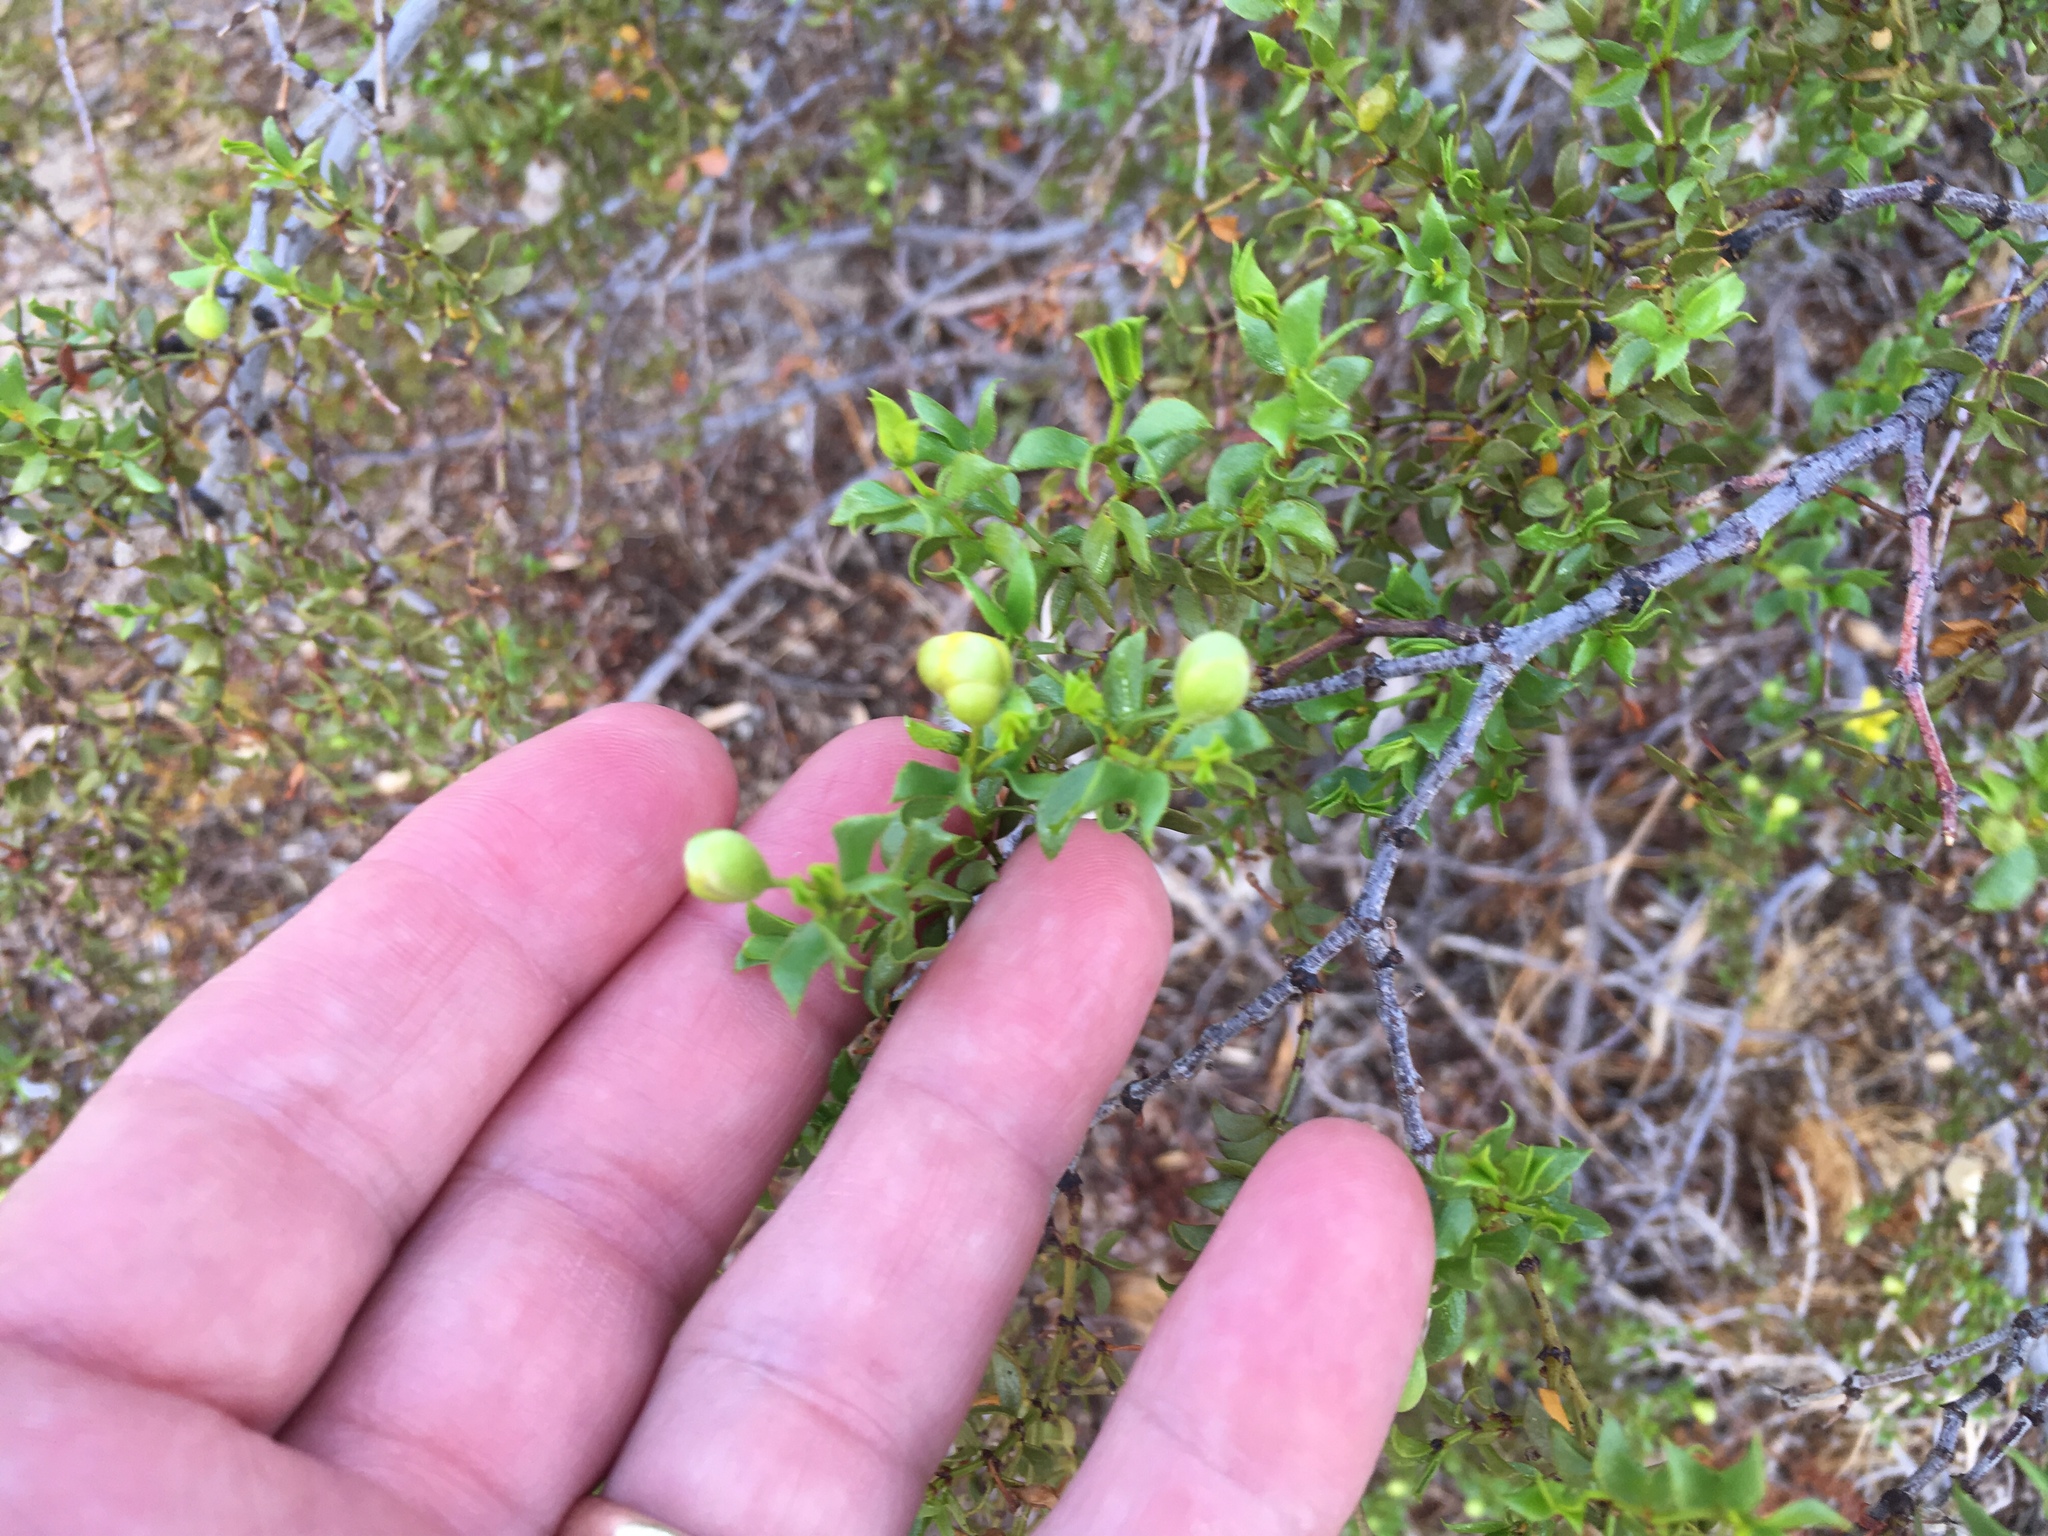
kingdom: Plantae
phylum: Tracheophyta
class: Magnoliopsida
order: Zygophyllales
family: Zygophyllaceae
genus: Larrea
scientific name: Larrea tridentata
